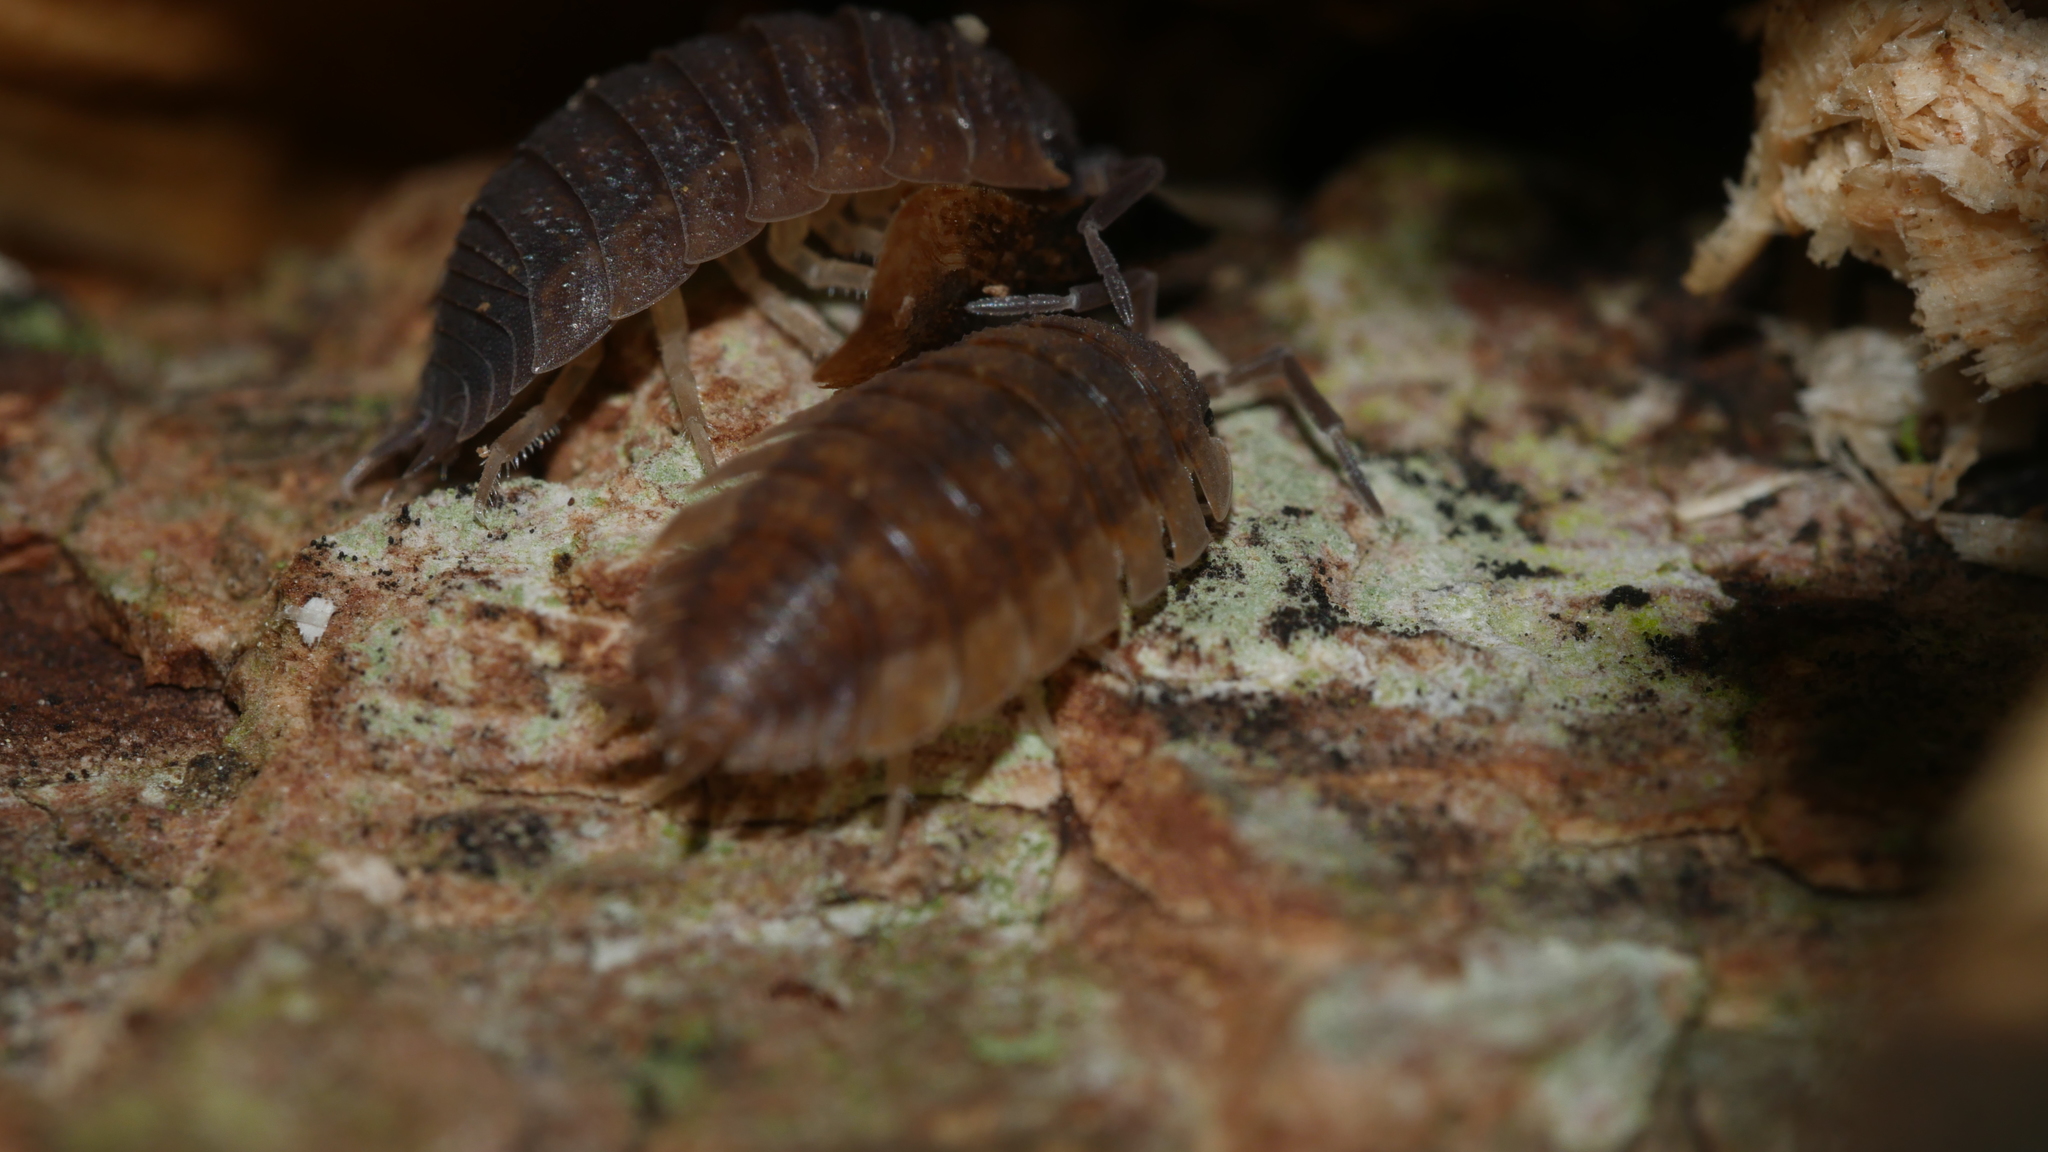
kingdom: Animalia
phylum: Arthropoda
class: Malacostraca
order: Isopoda
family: Porcellionidae
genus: Porcellio
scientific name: Porcellio scaber
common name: Common rough woodlouse
